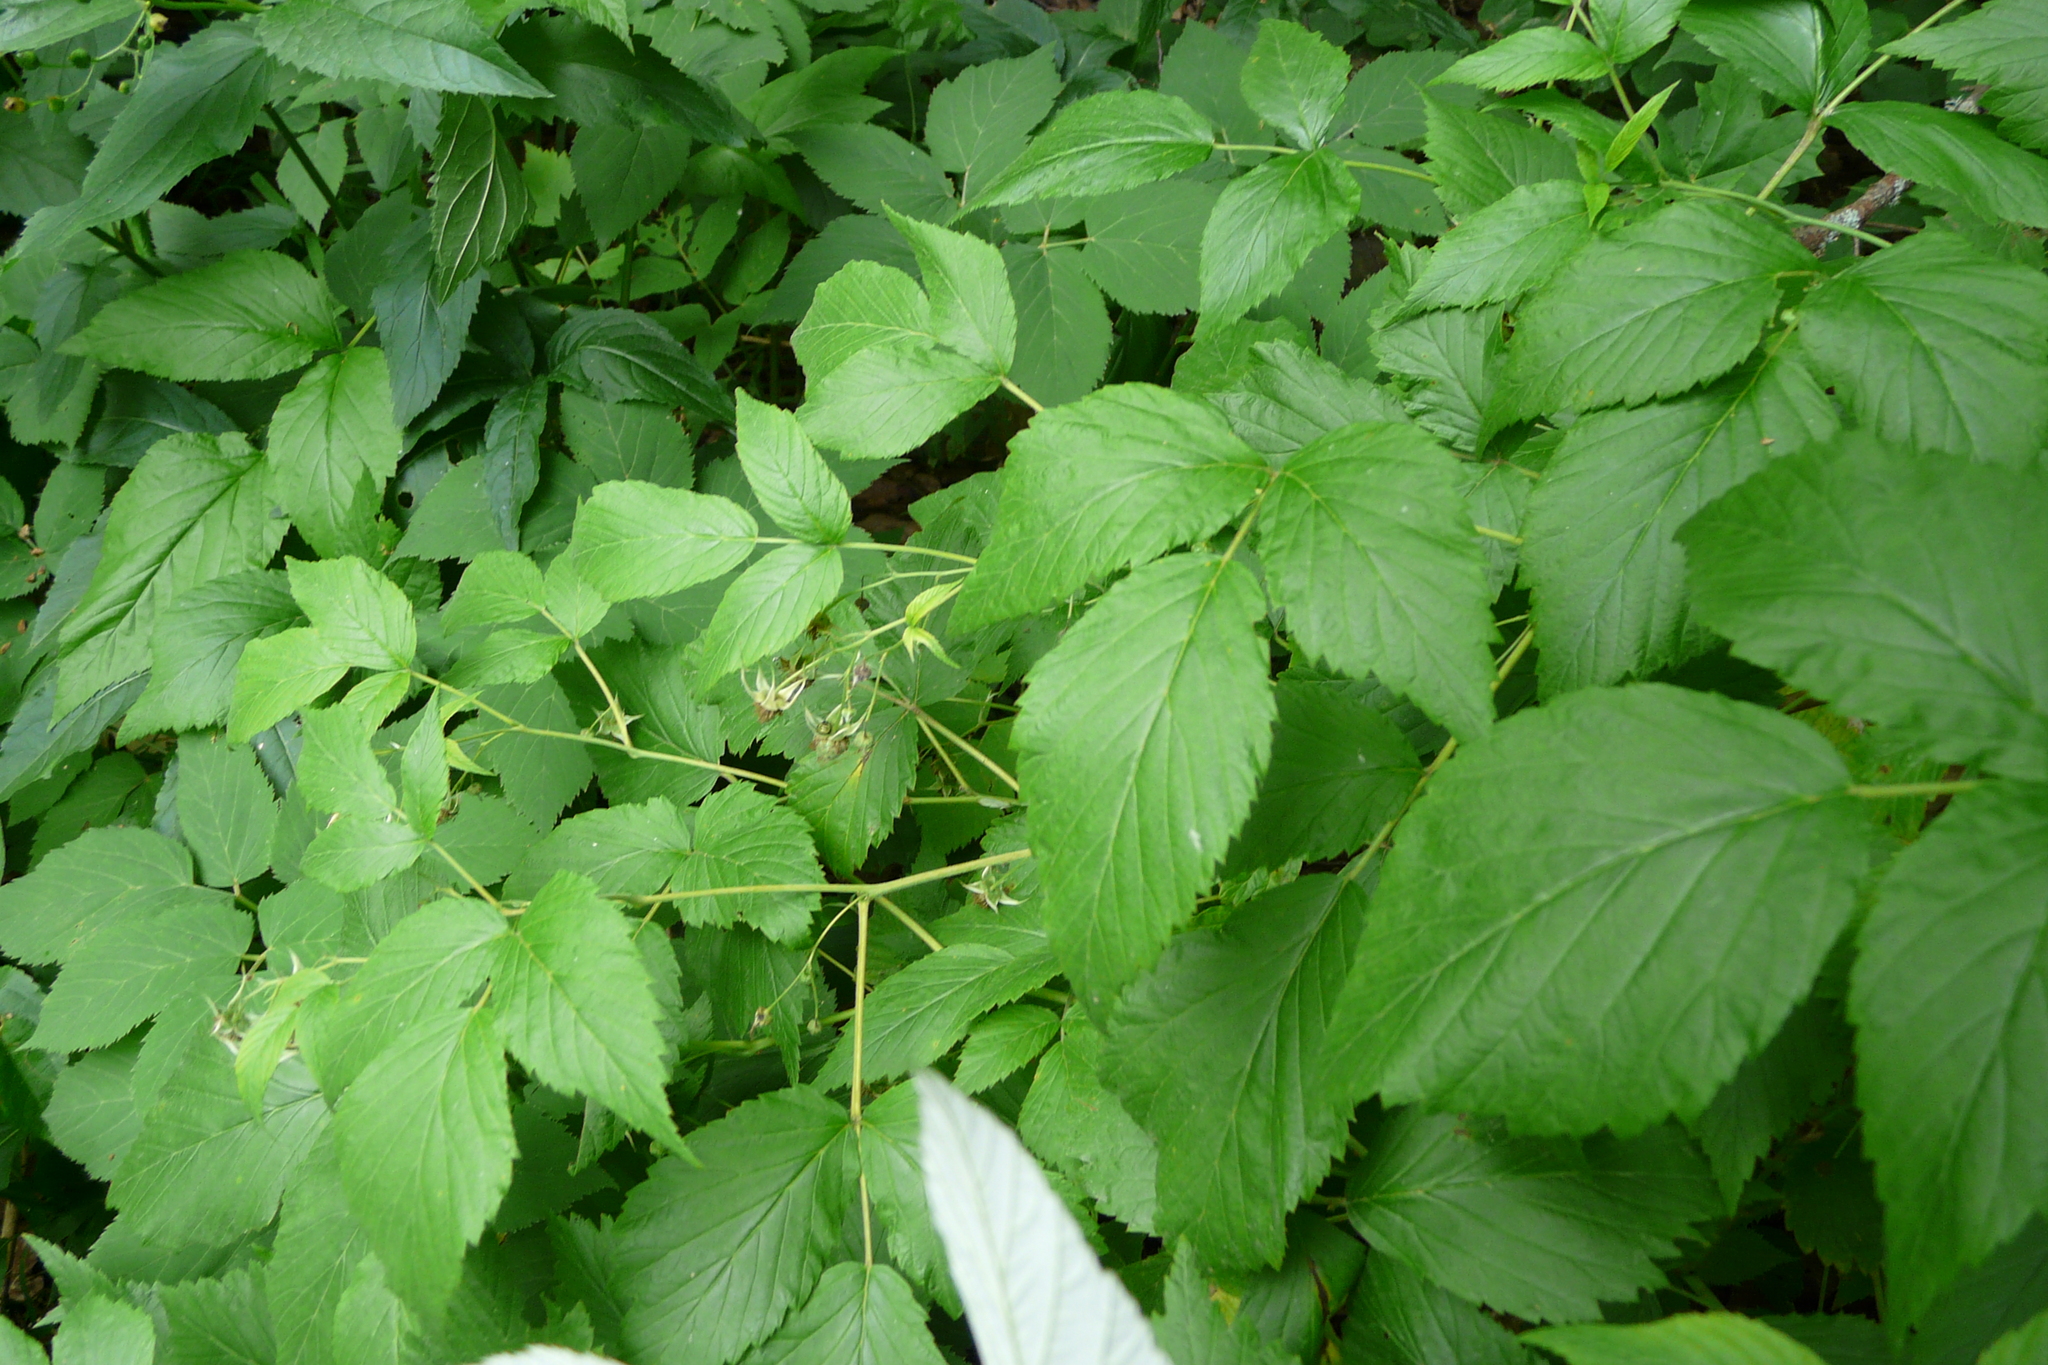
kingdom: Plantae
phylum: Tracheophyta
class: Magnoliopsida
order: Rosales
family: Rosaceae
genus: Rubus
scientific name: Rubus idaeus
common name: Raspberry
